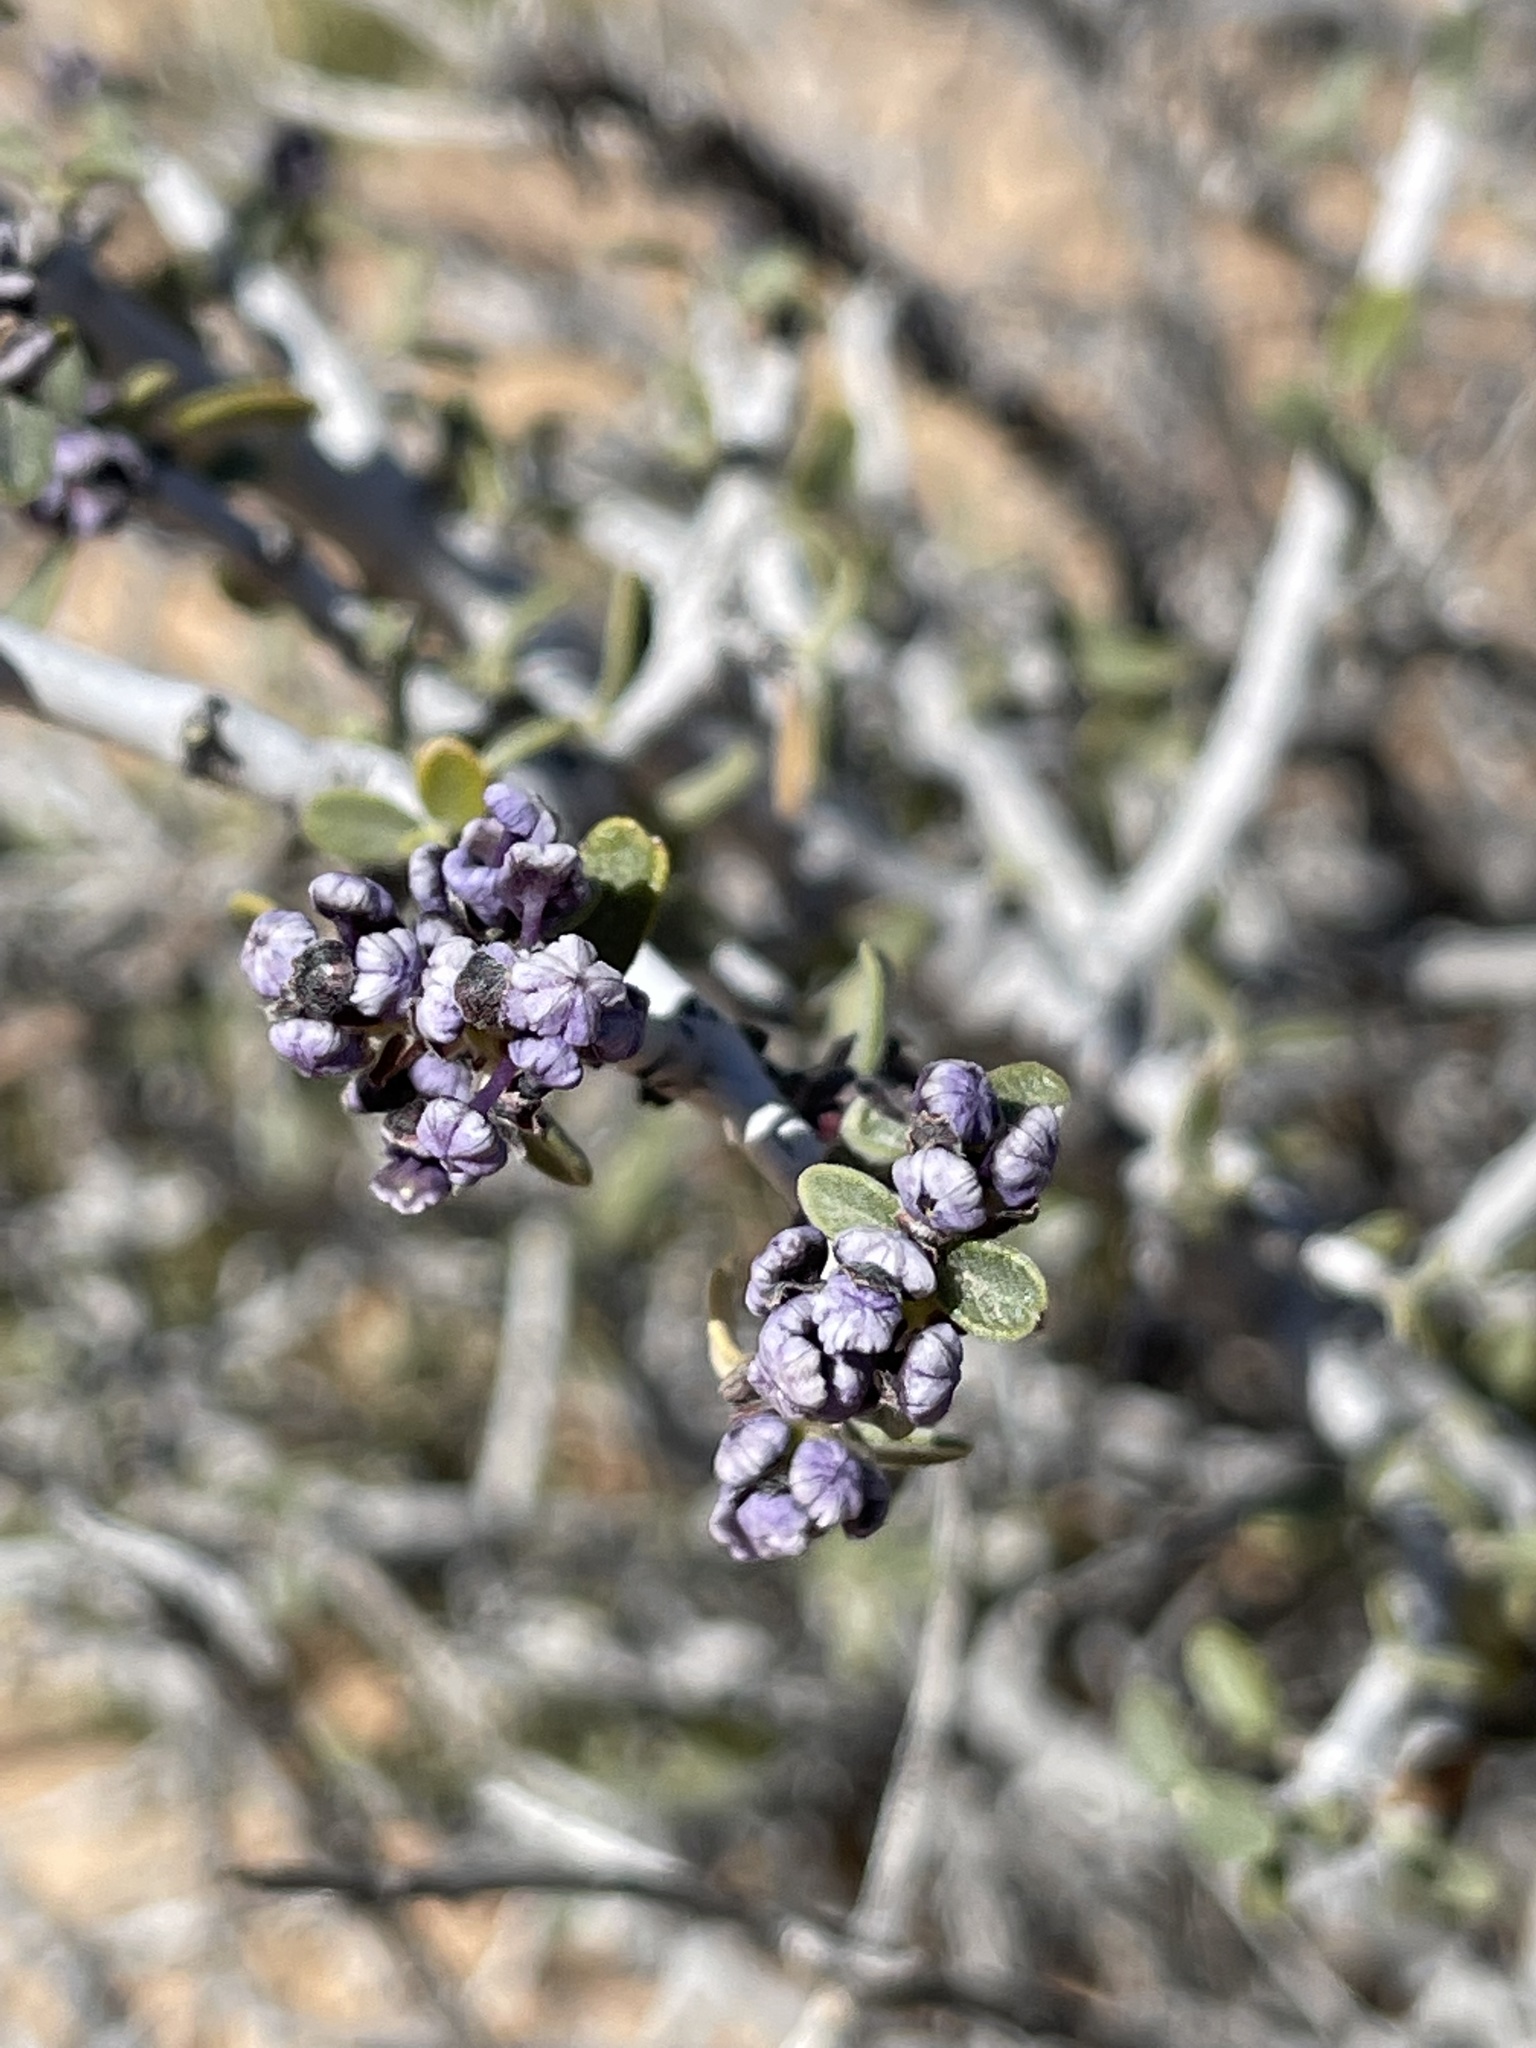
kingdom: Plantae
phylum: Tracheophyta
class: Magnoliopsida
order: Rosales
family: Rhamnaceae
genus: Ceanothus
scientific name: Ceanothus pauciflorus
